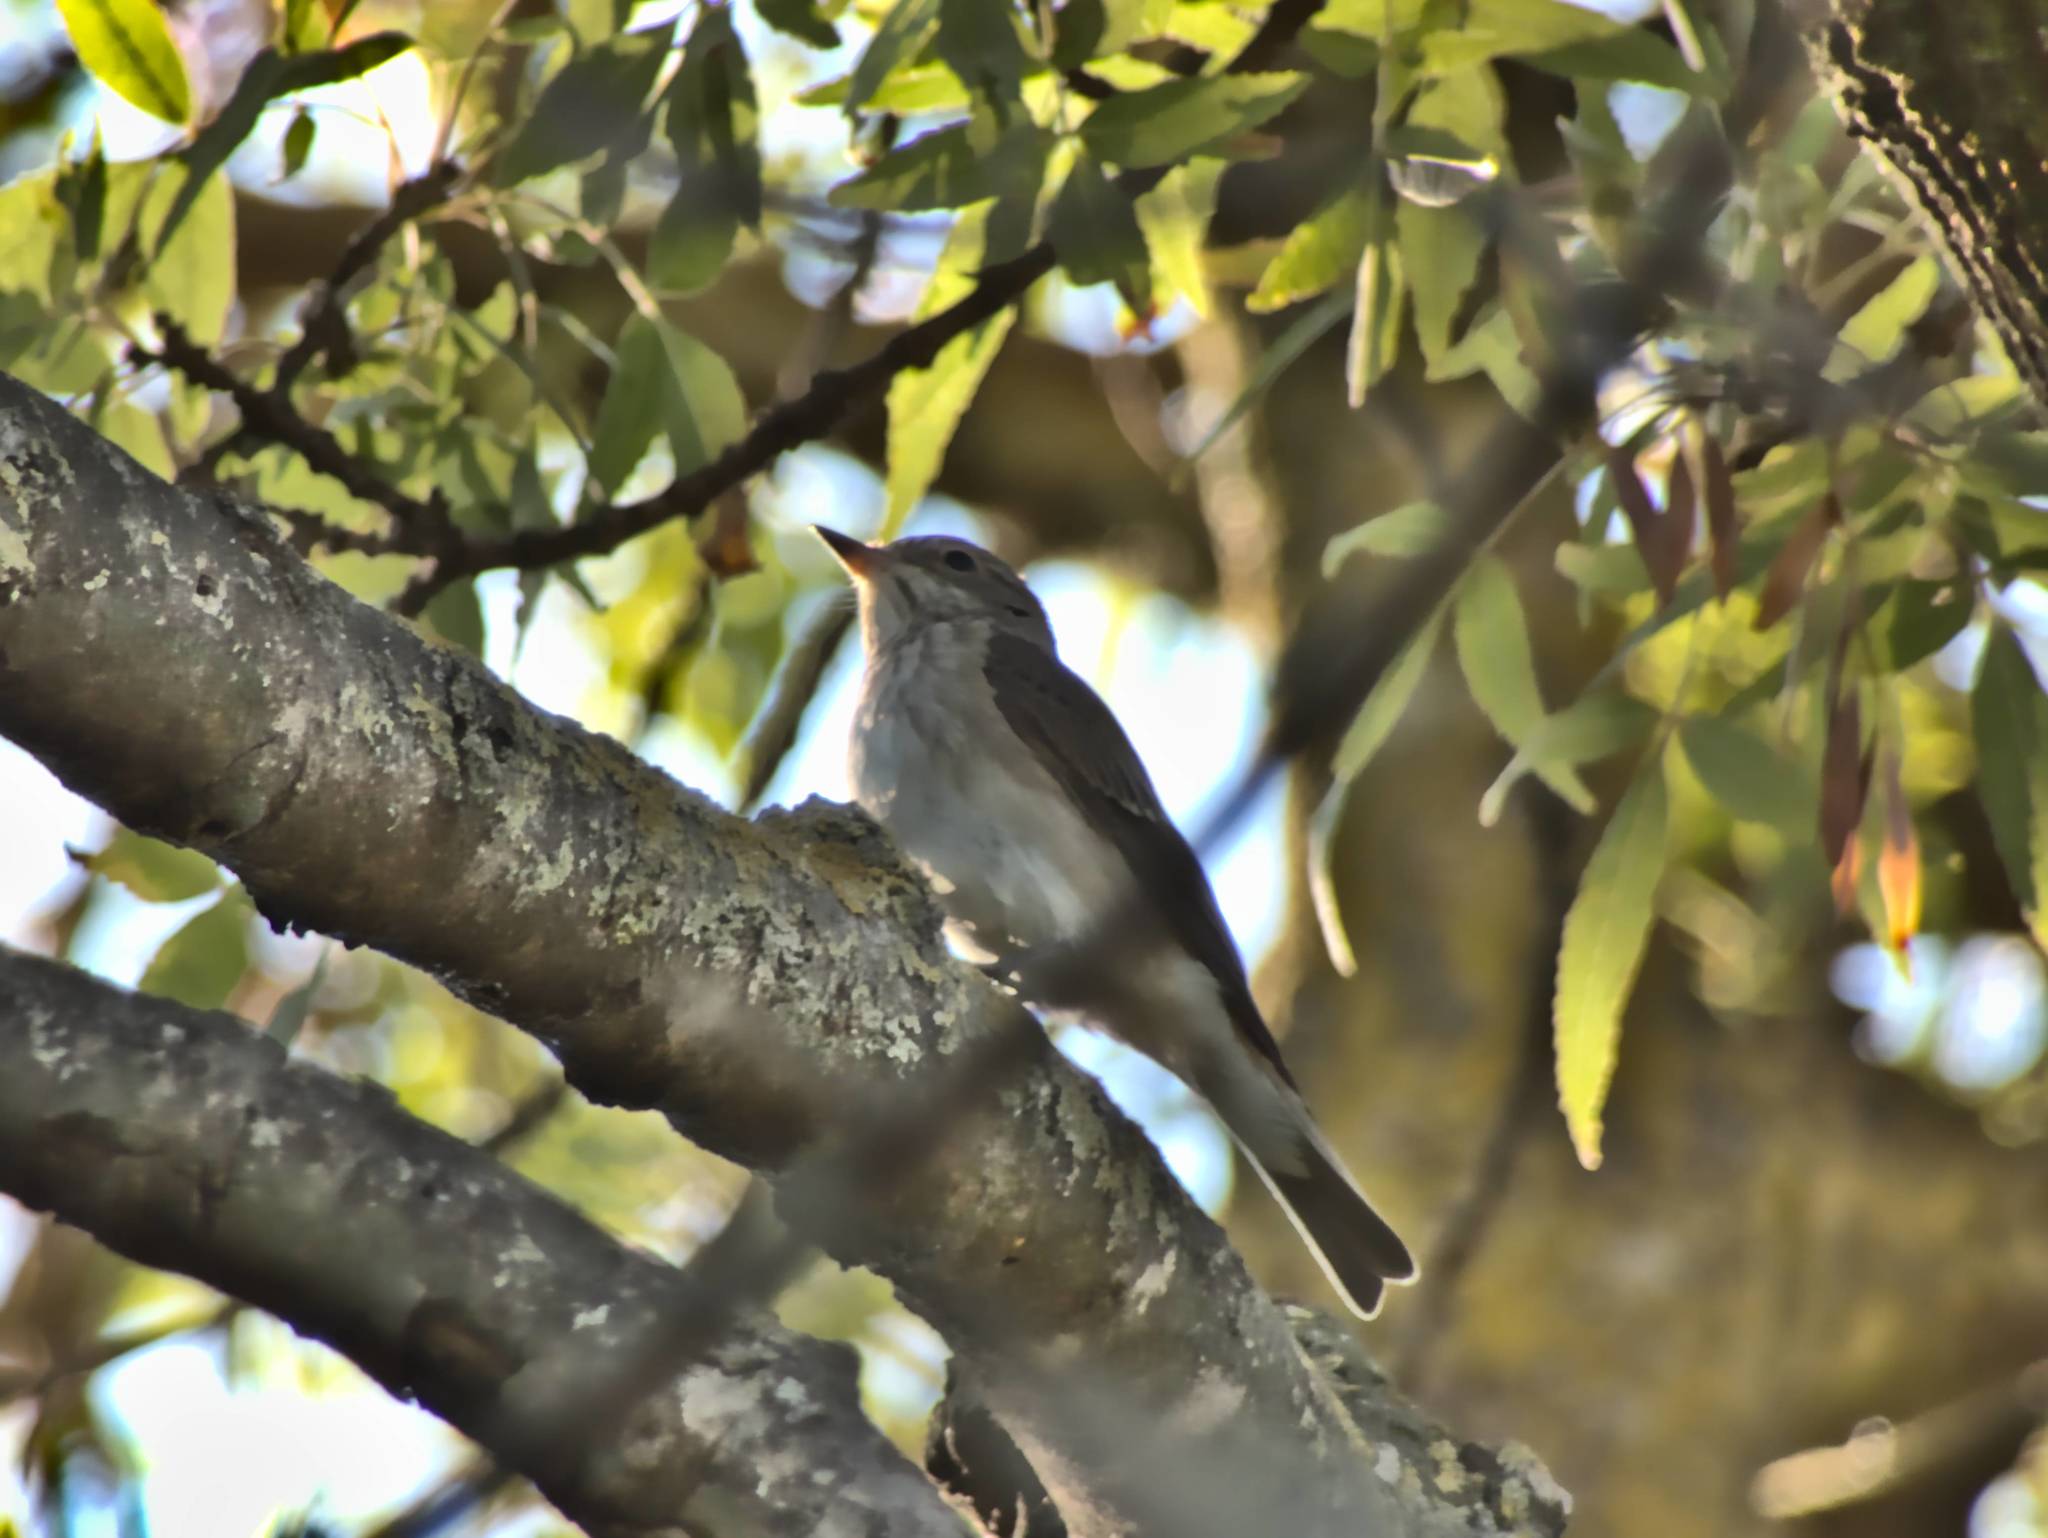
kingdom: Animalia
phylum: Chordata
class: Aves
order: Passeriformes
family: Muscicapidae
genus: Muscicapa
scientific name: Muscicapa striata
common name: Spotted flycatcher
